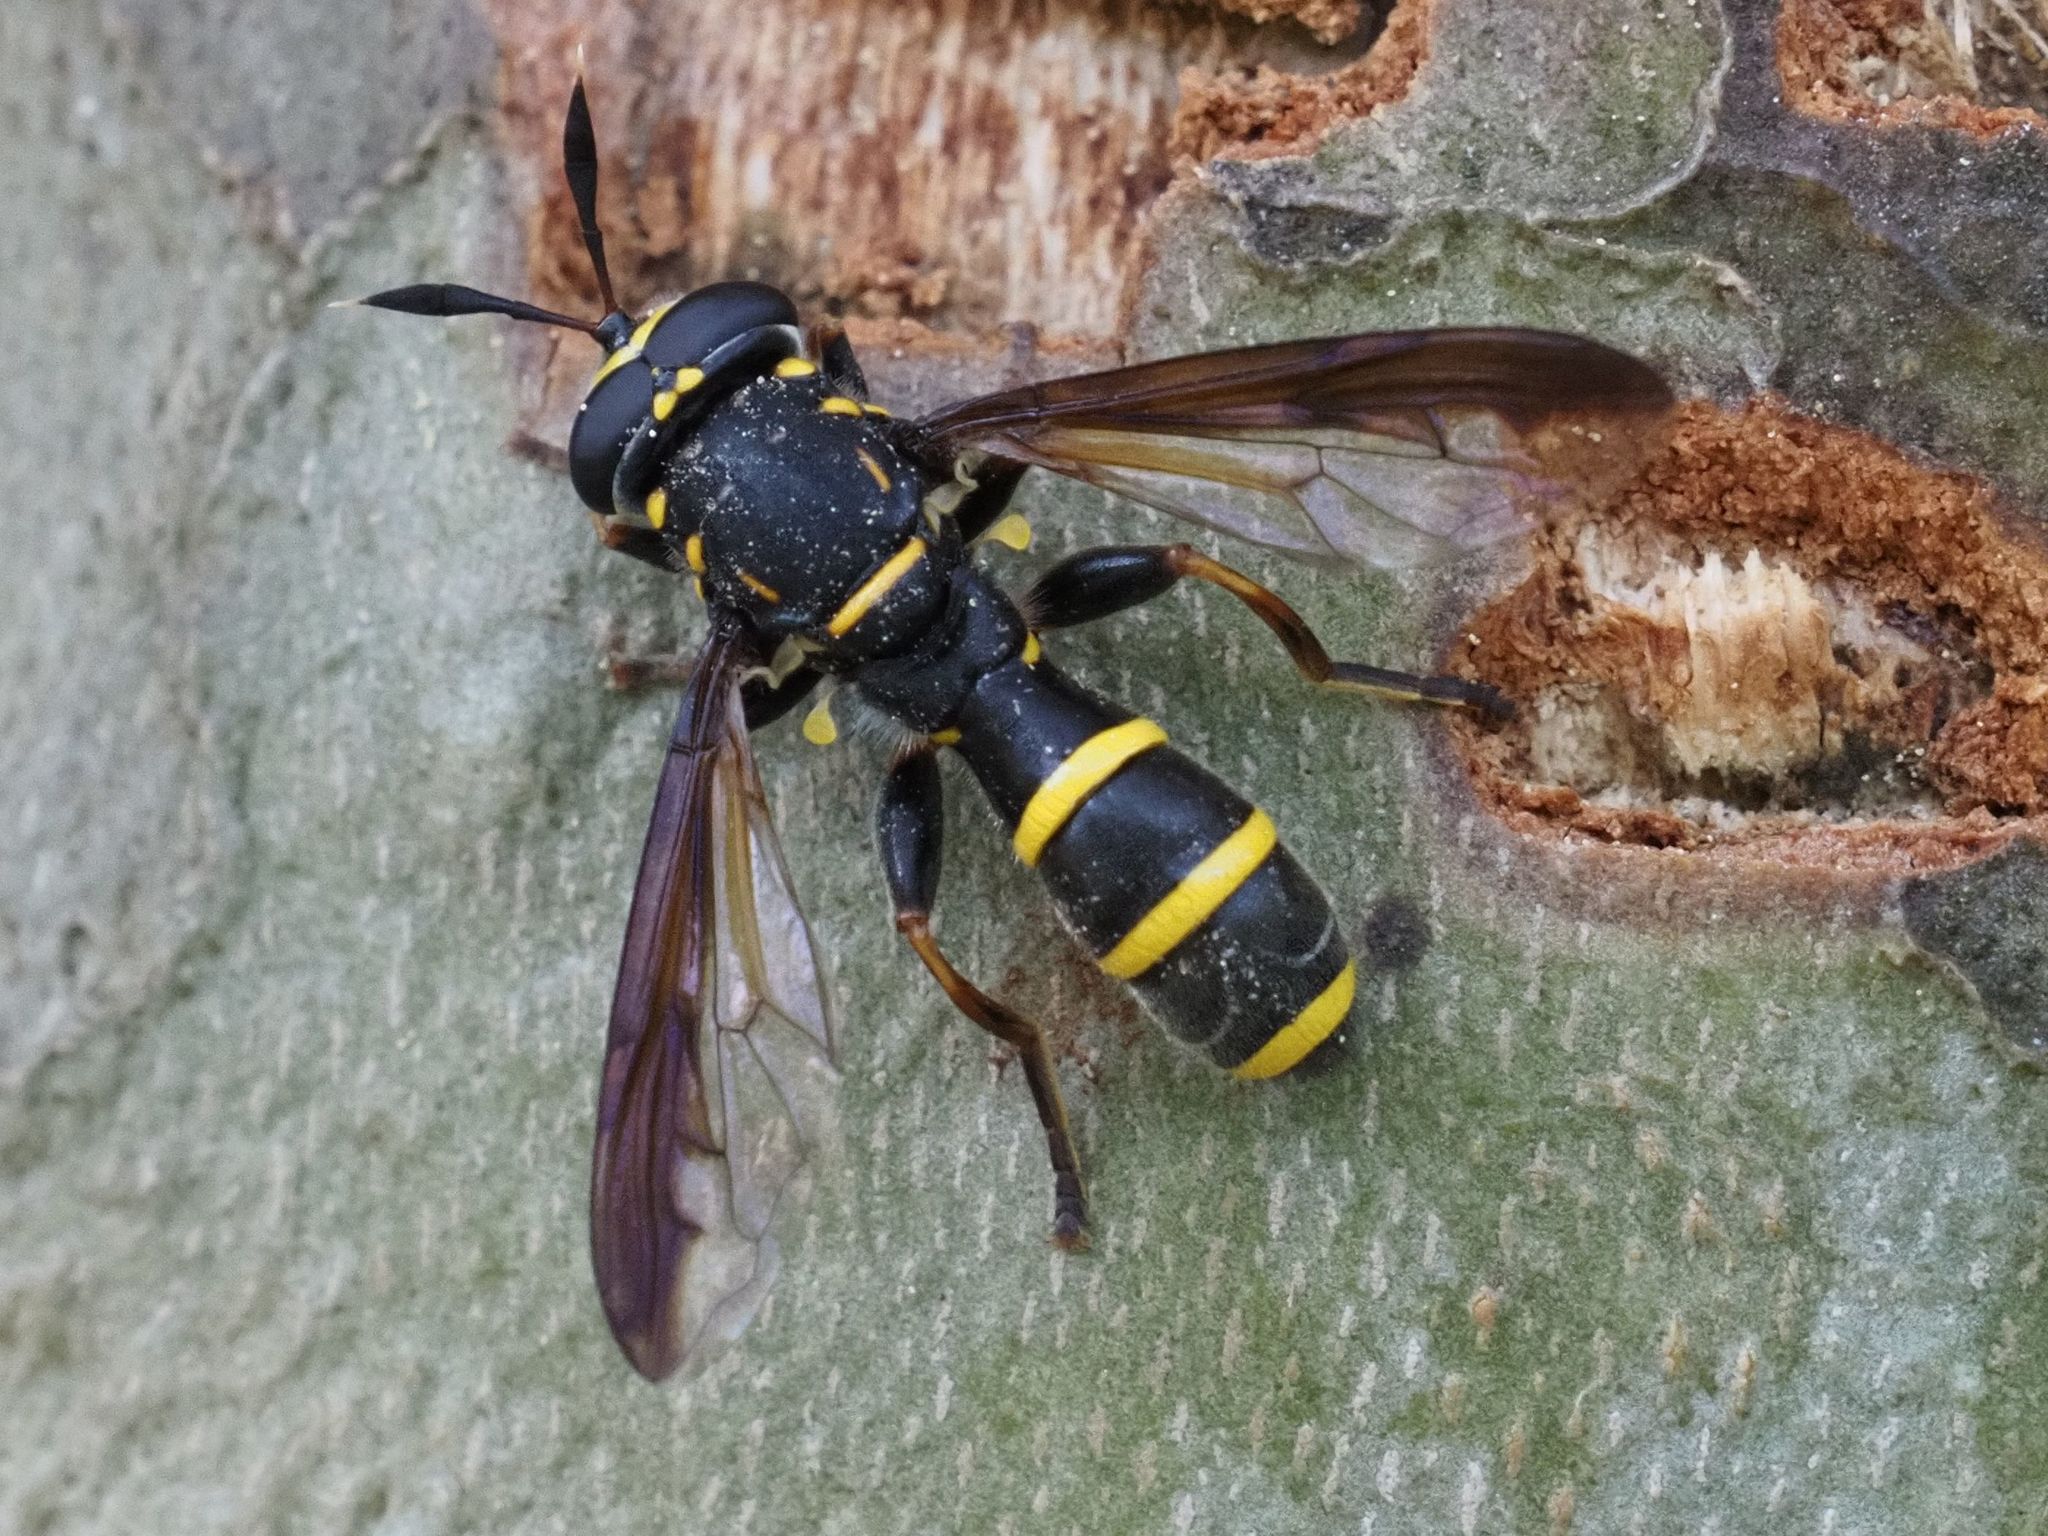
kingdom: Animalia
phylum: Arthropoda
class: Insecta
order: Diptera
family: Syrphidae
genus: Sphiximorpha
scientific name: Sphiximorpha subsessilis
